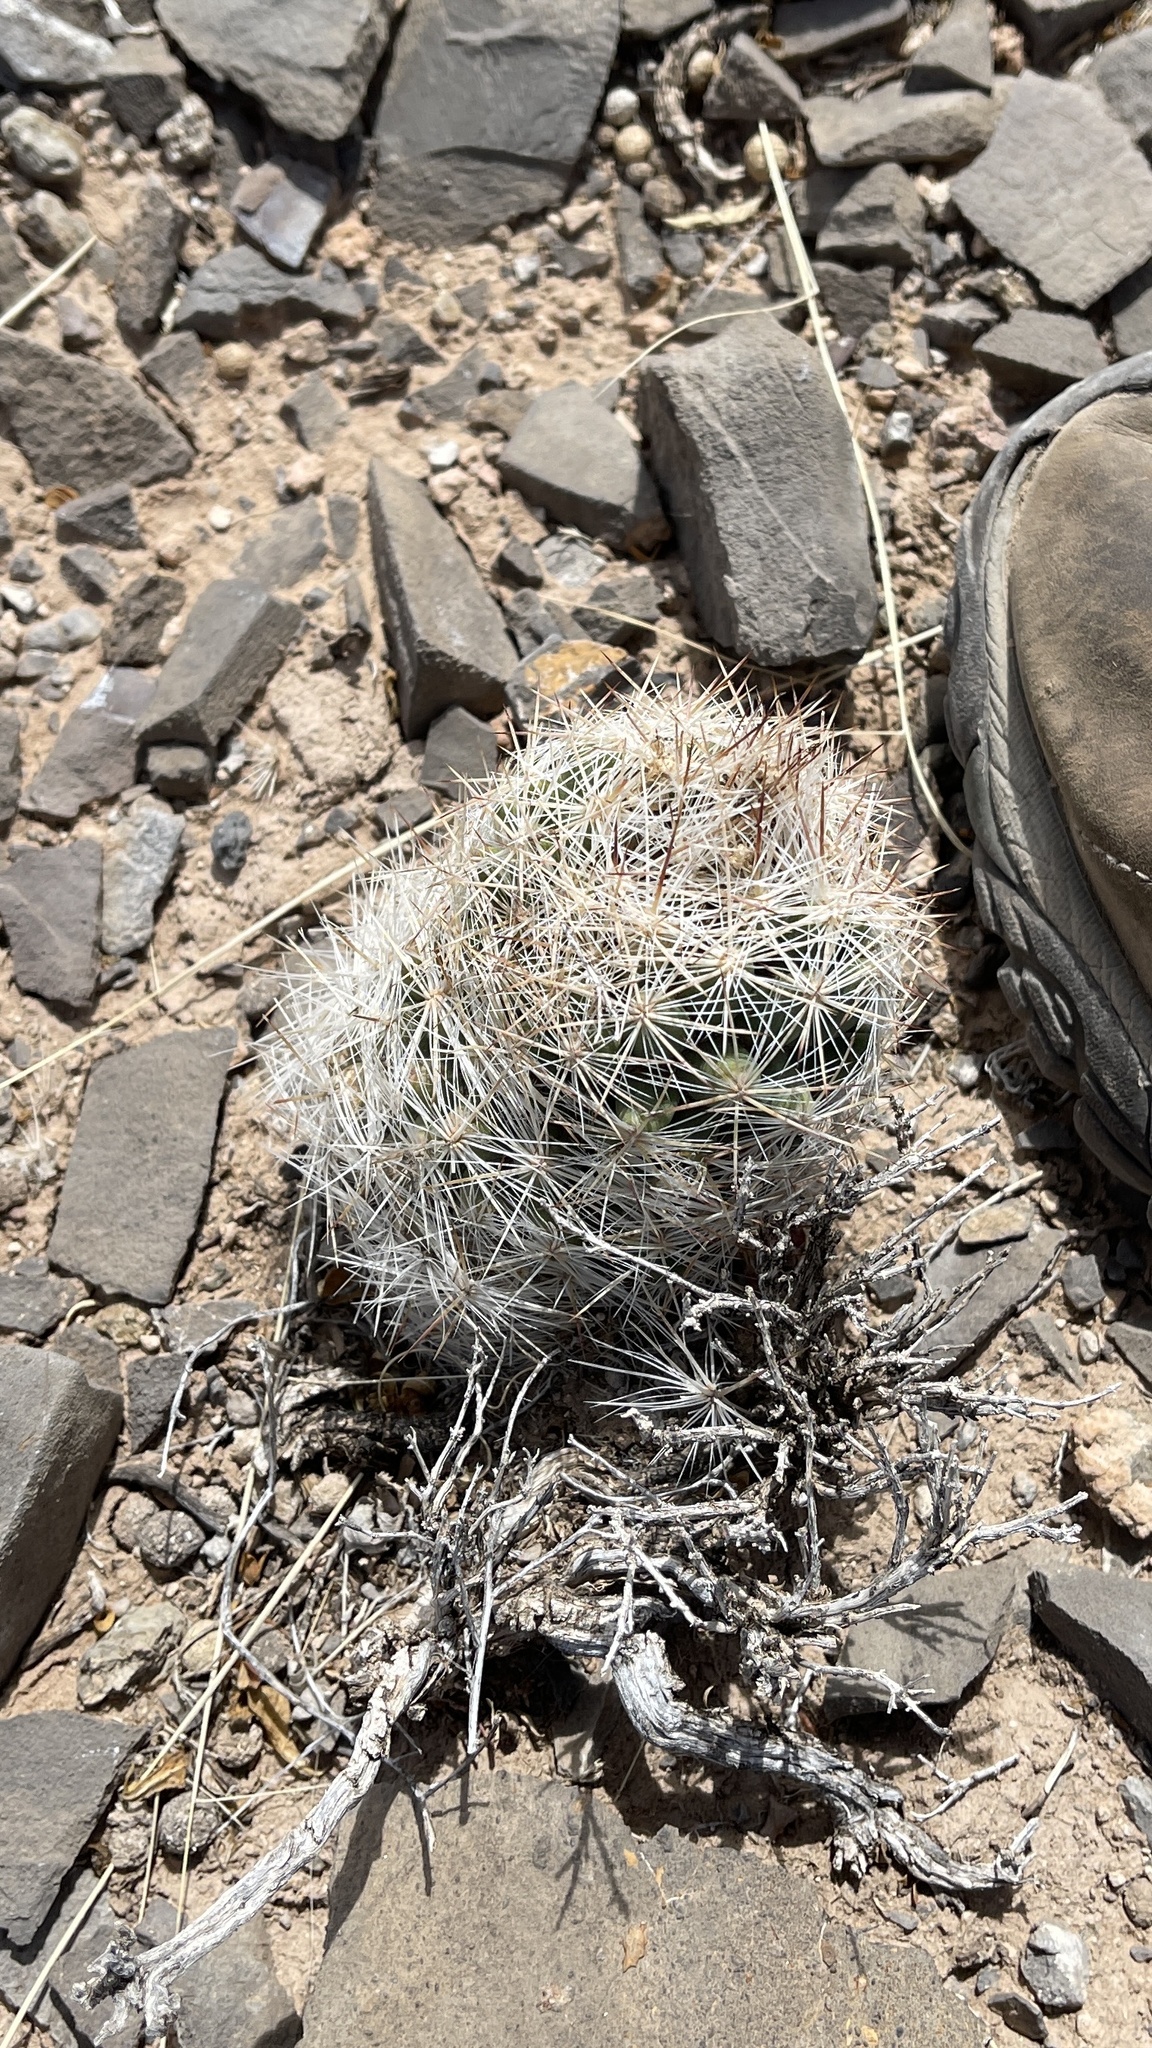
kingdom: Plantae
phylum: Tracheophyta
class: Magnoliopsida
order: Caryophyllales
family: Cactaceae
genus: Pelecyphora
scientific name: Pelecyphora vivipara
